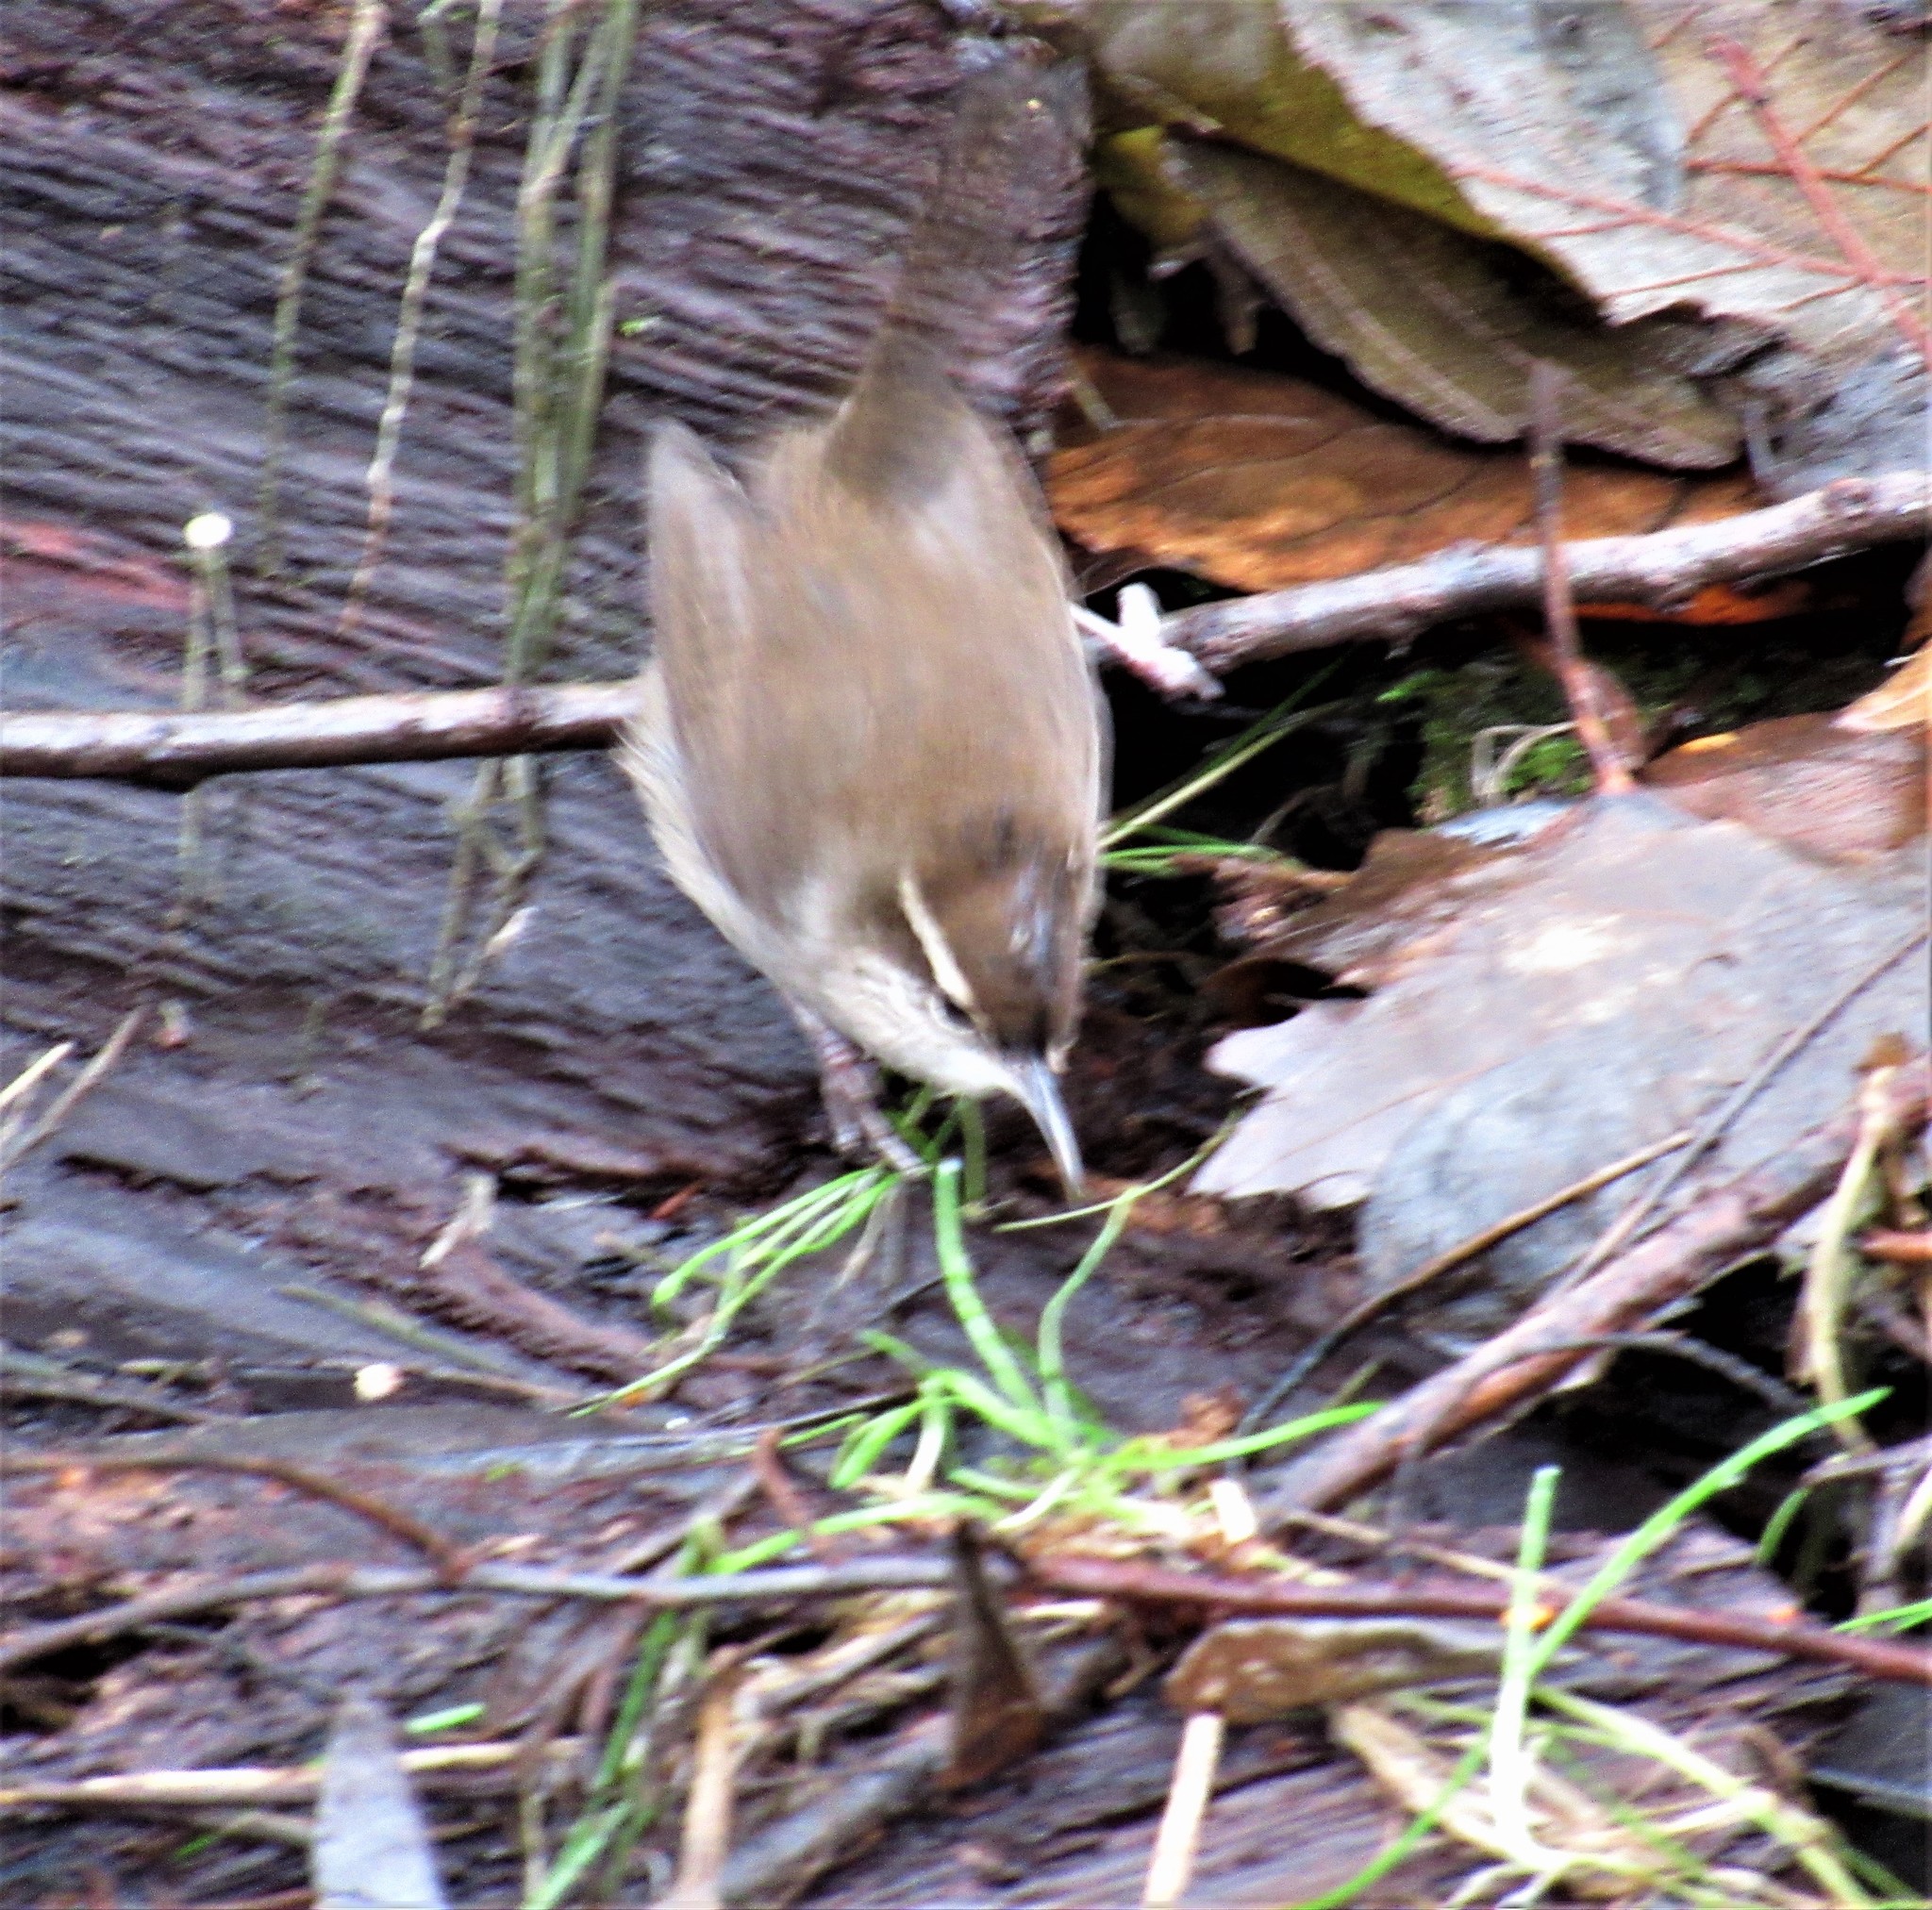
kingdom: Animalia
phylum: Chordata
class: Aves
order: Passeriformes
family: Troglodytidae
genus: Thryomanes
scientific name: Thryomanes bewickii
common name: Bewick's wren
